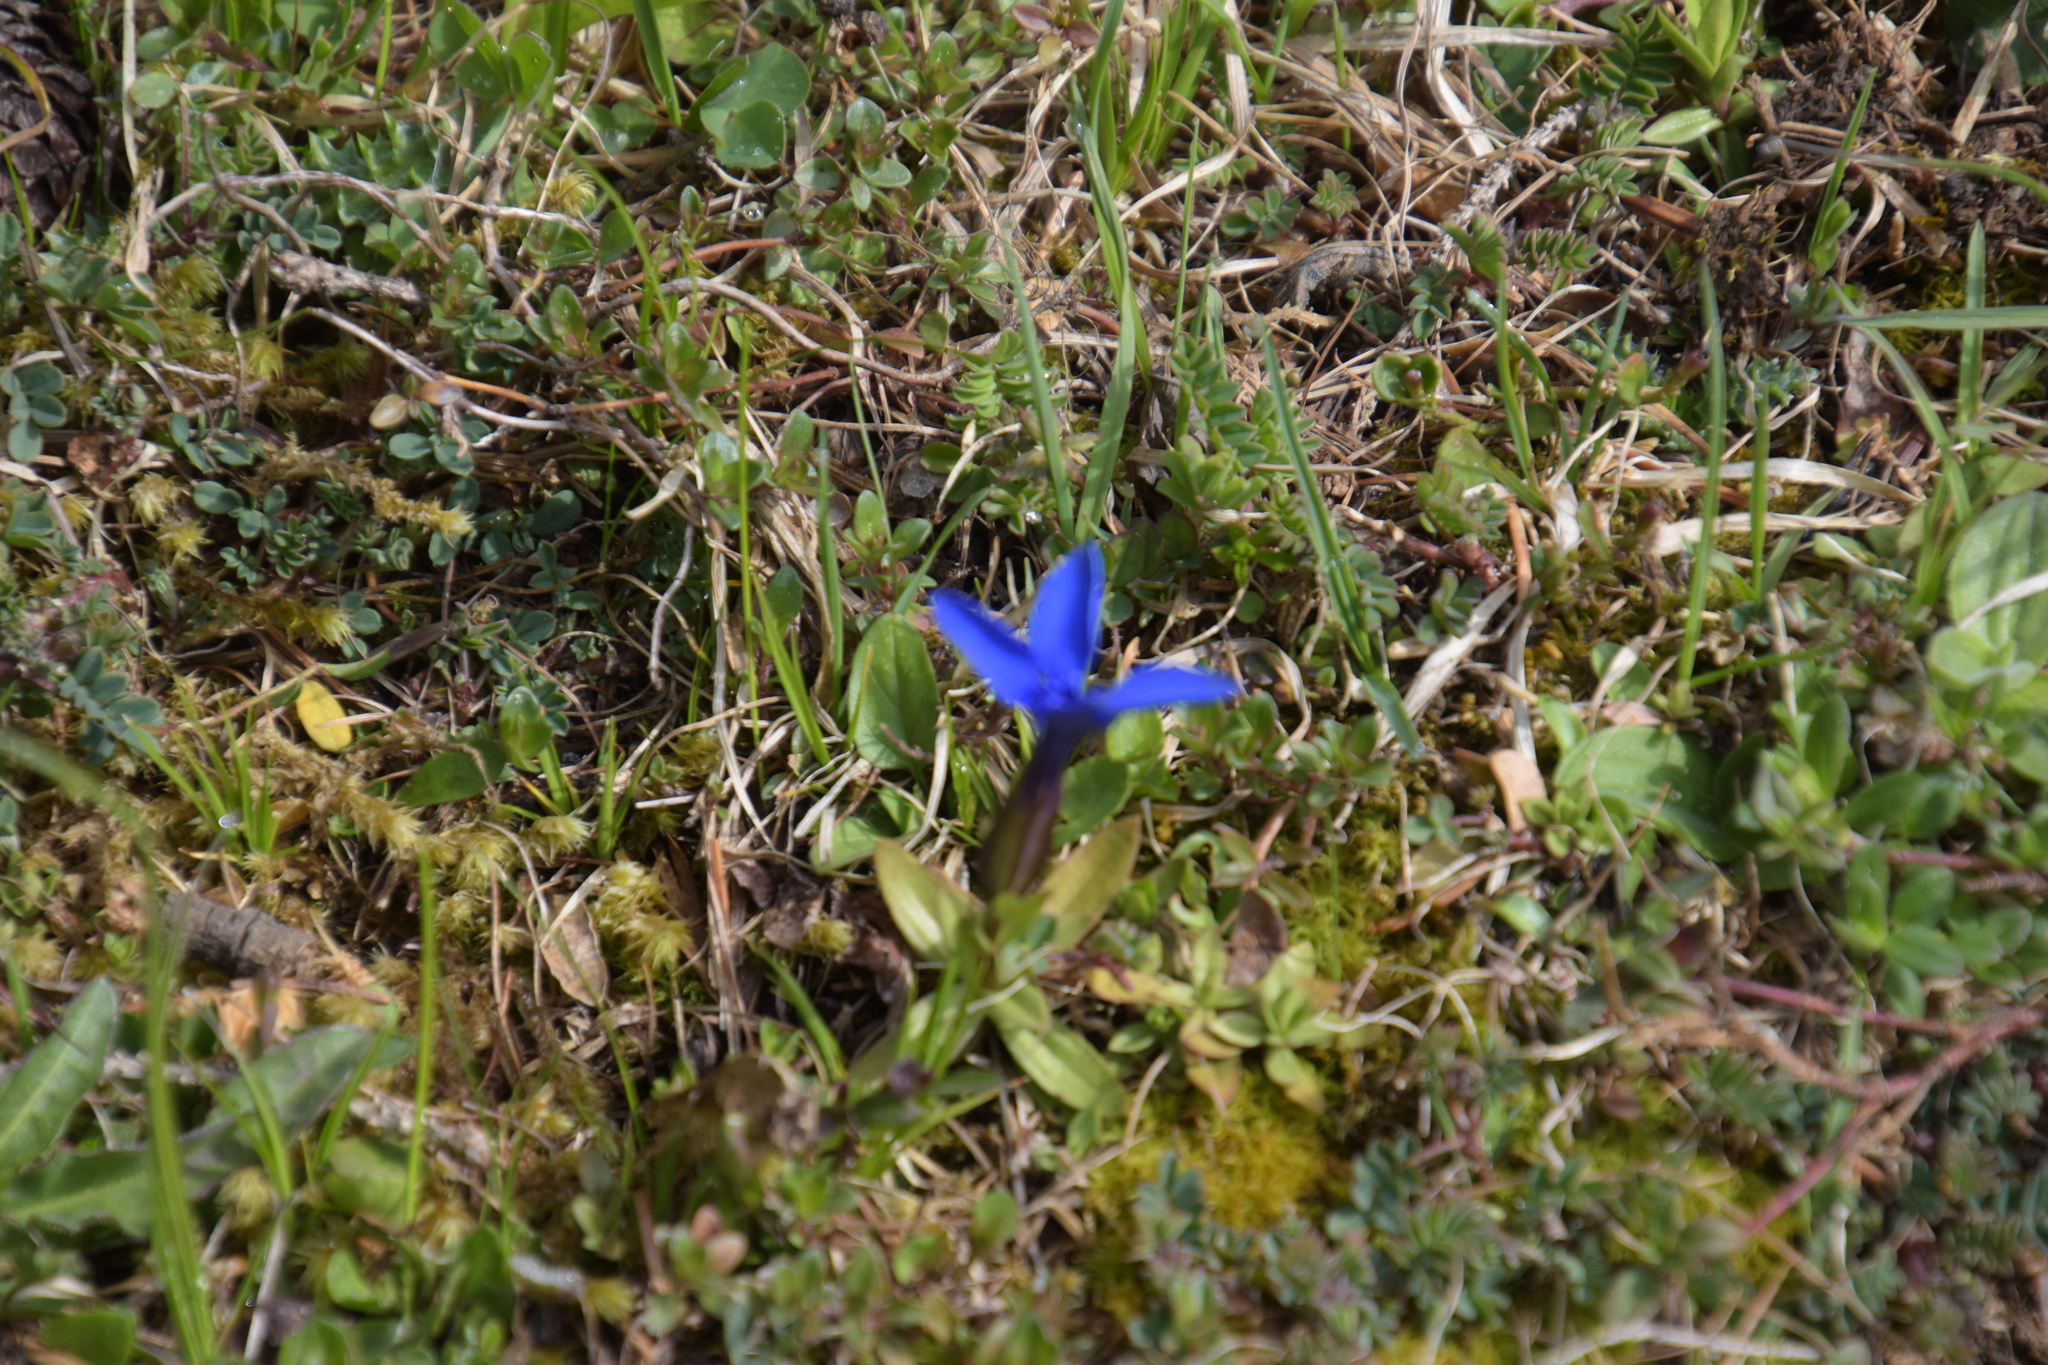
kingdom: Plantae
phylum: Tracheophyta
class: Magnoliopsida
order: Gentianales
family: Gentianaceae
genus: Gentiana
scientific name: Gentiana verna
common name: Spring gentian
